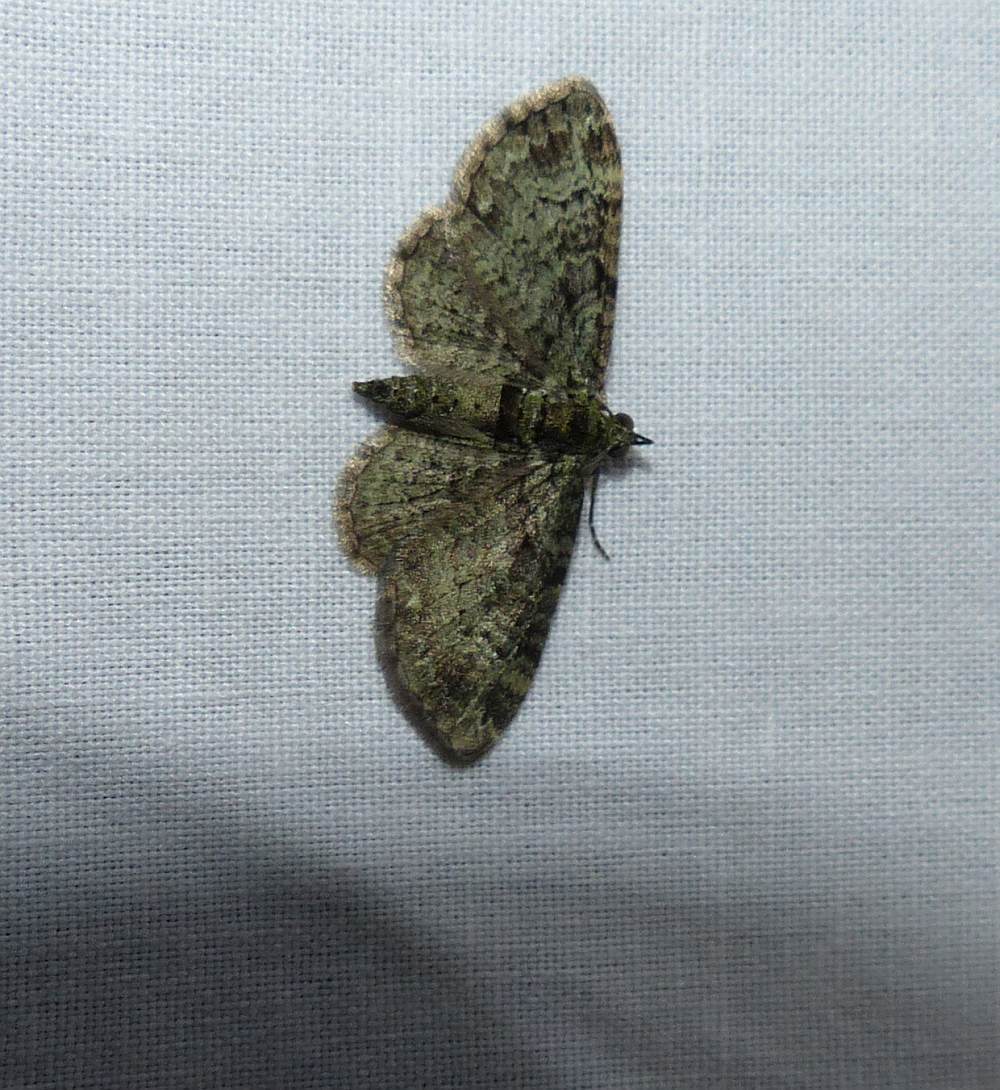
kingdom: Animalia
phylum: Arthropoda
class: Insecta
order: Lepidoptera
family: Geometridae
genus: Pasiphila
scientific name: Pasiphila rectangulata
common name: Green pug
